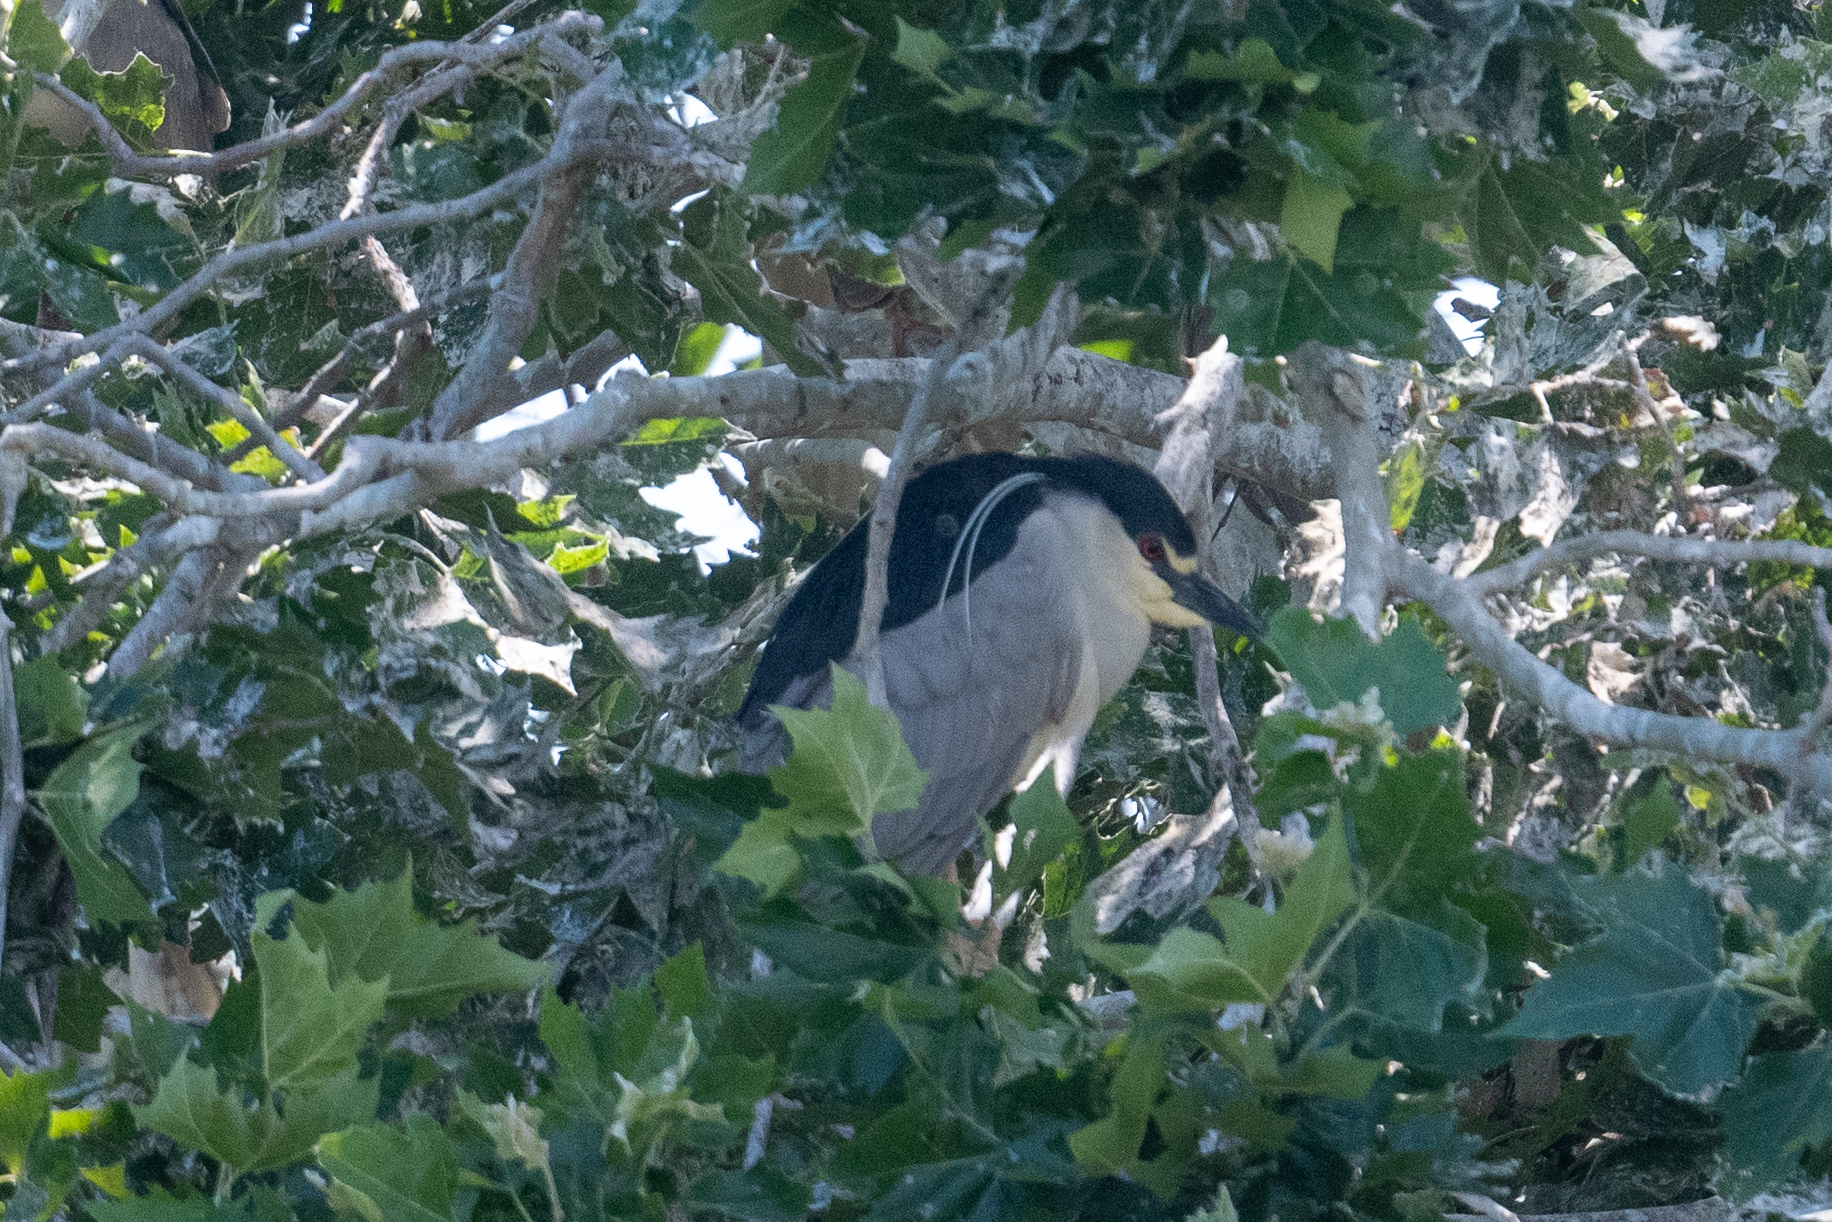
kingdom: Animalia
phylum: Chordata
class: Aves
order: Pelecaniformes
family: Ardeidae
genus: Nycticorax
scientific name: Nycticorax nycticorax
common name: Black-crowned night heron
